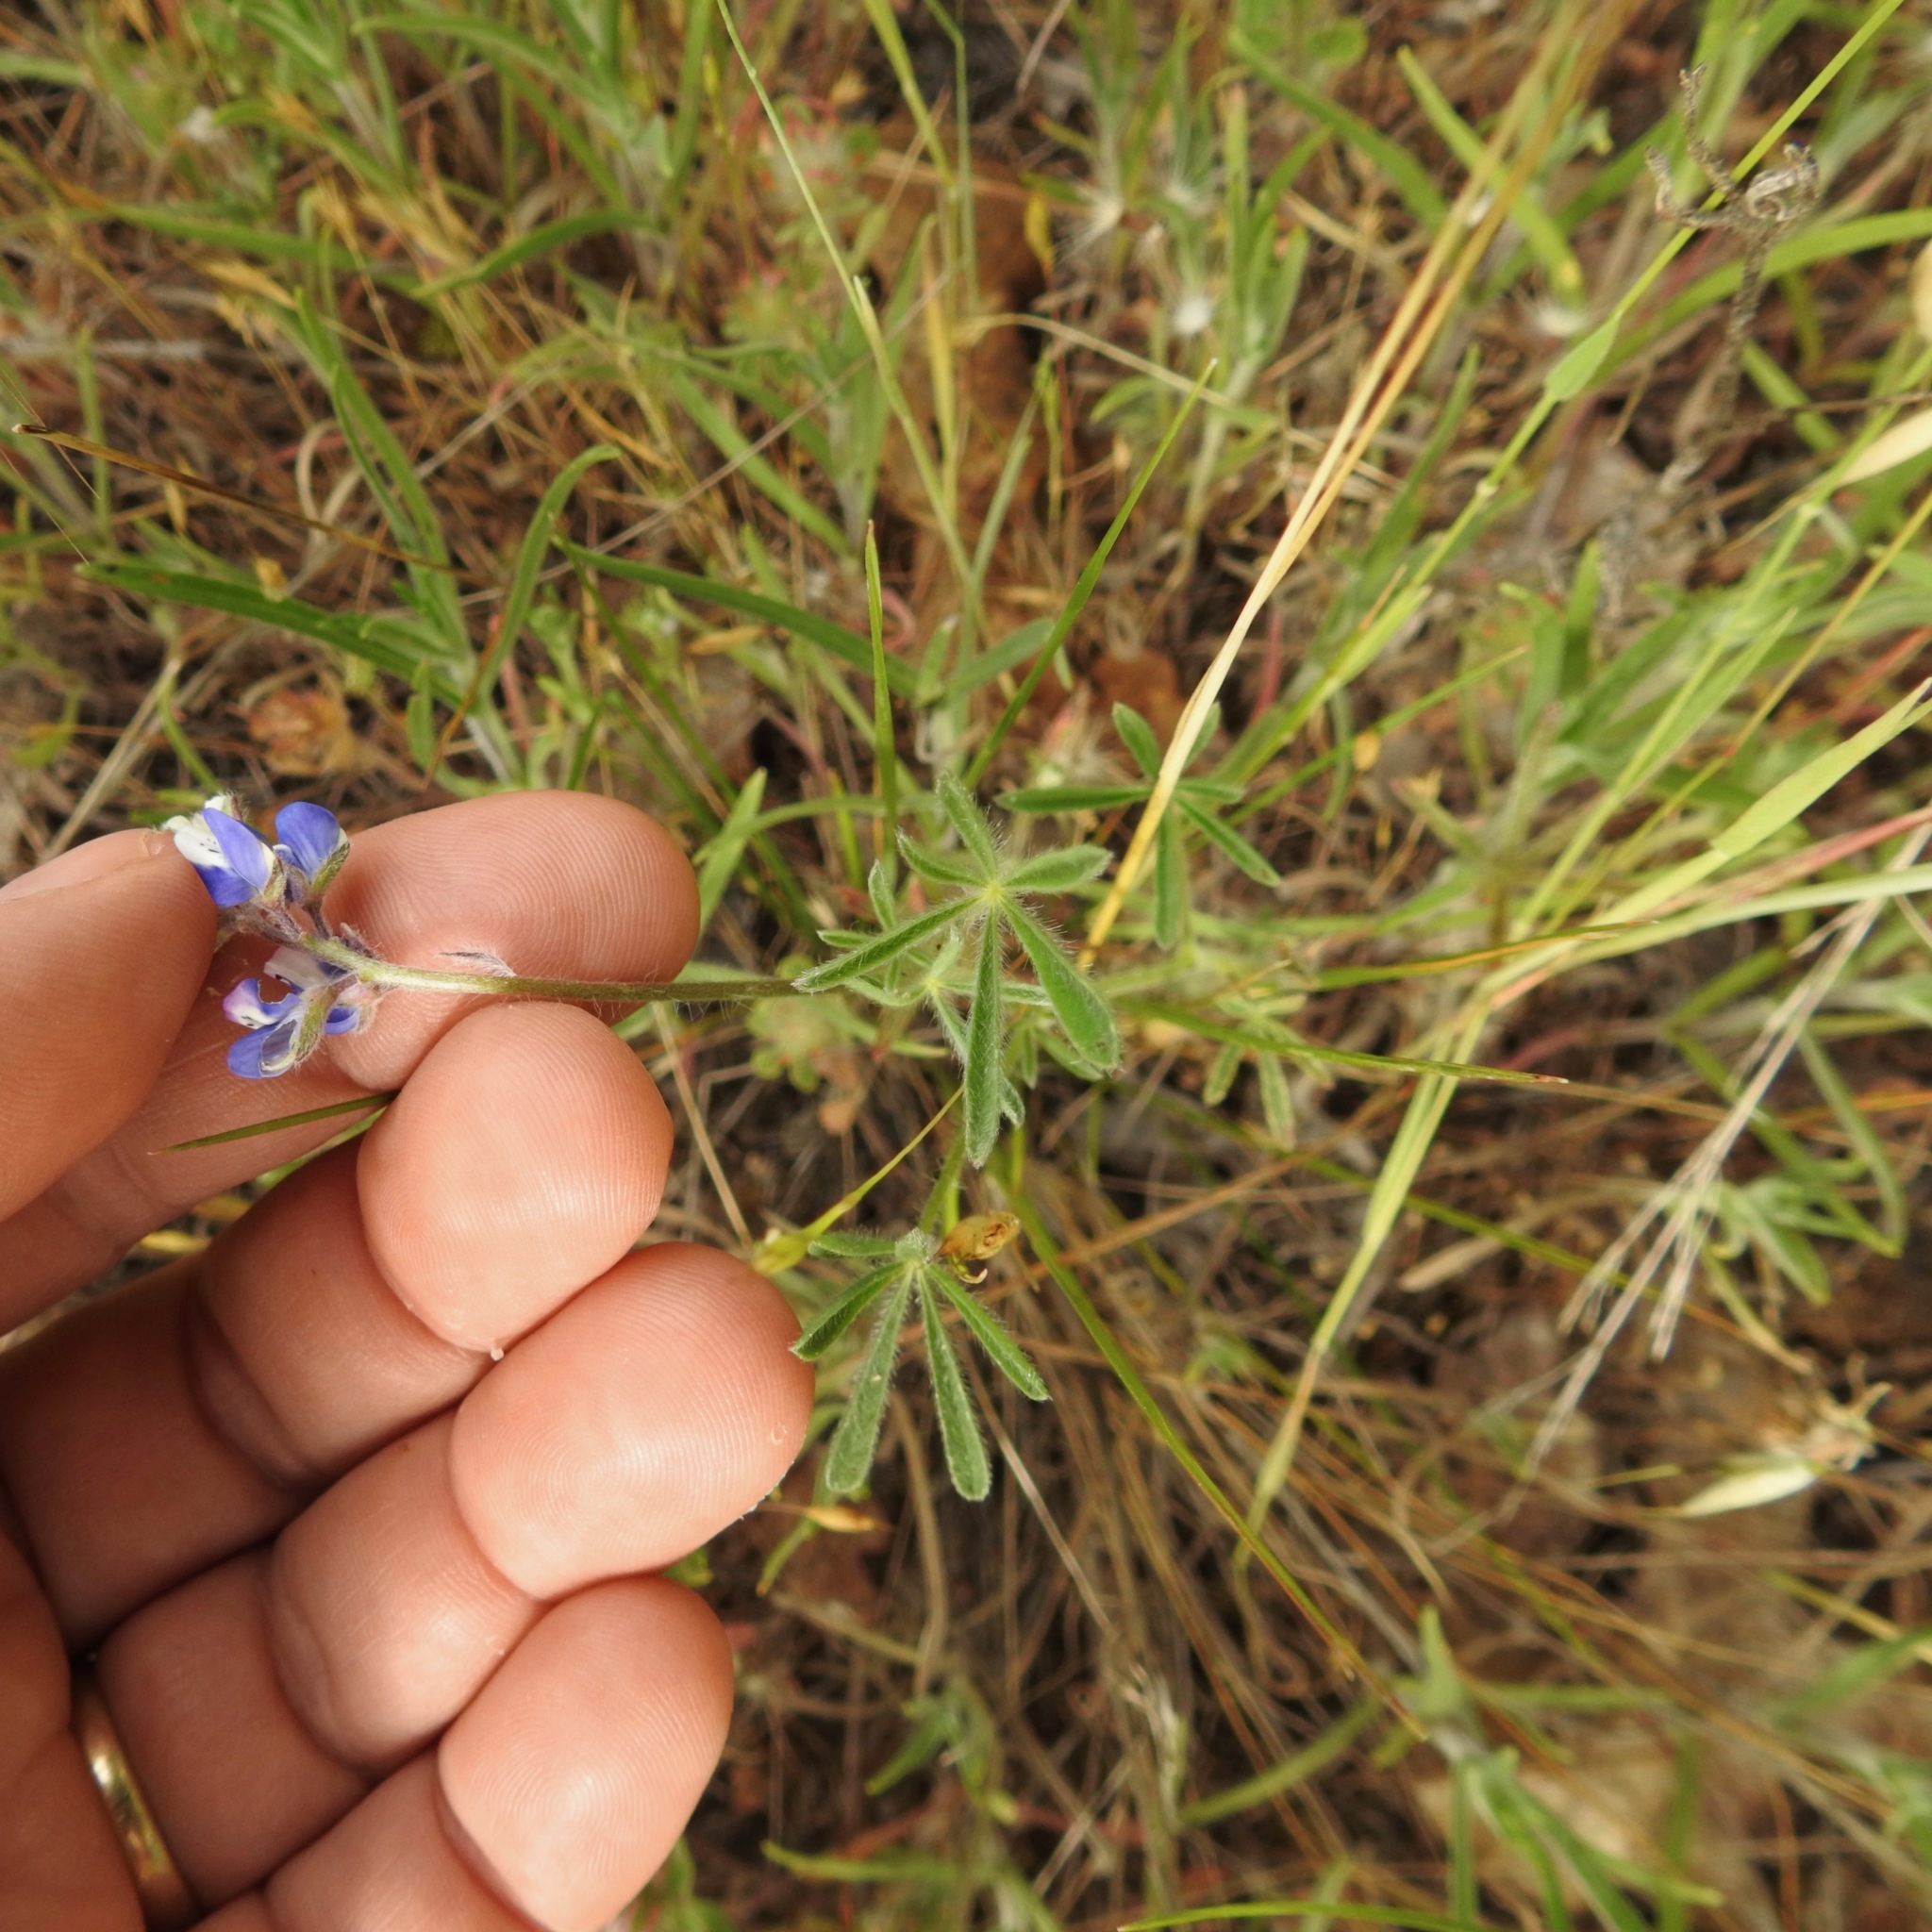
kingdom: Plantae
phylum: Tracheophyta
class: Magnoliopsida
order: Fabales
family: Fabaceae
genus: Lupinus
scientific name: Lupinus bicolor
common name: Miniature lupine
